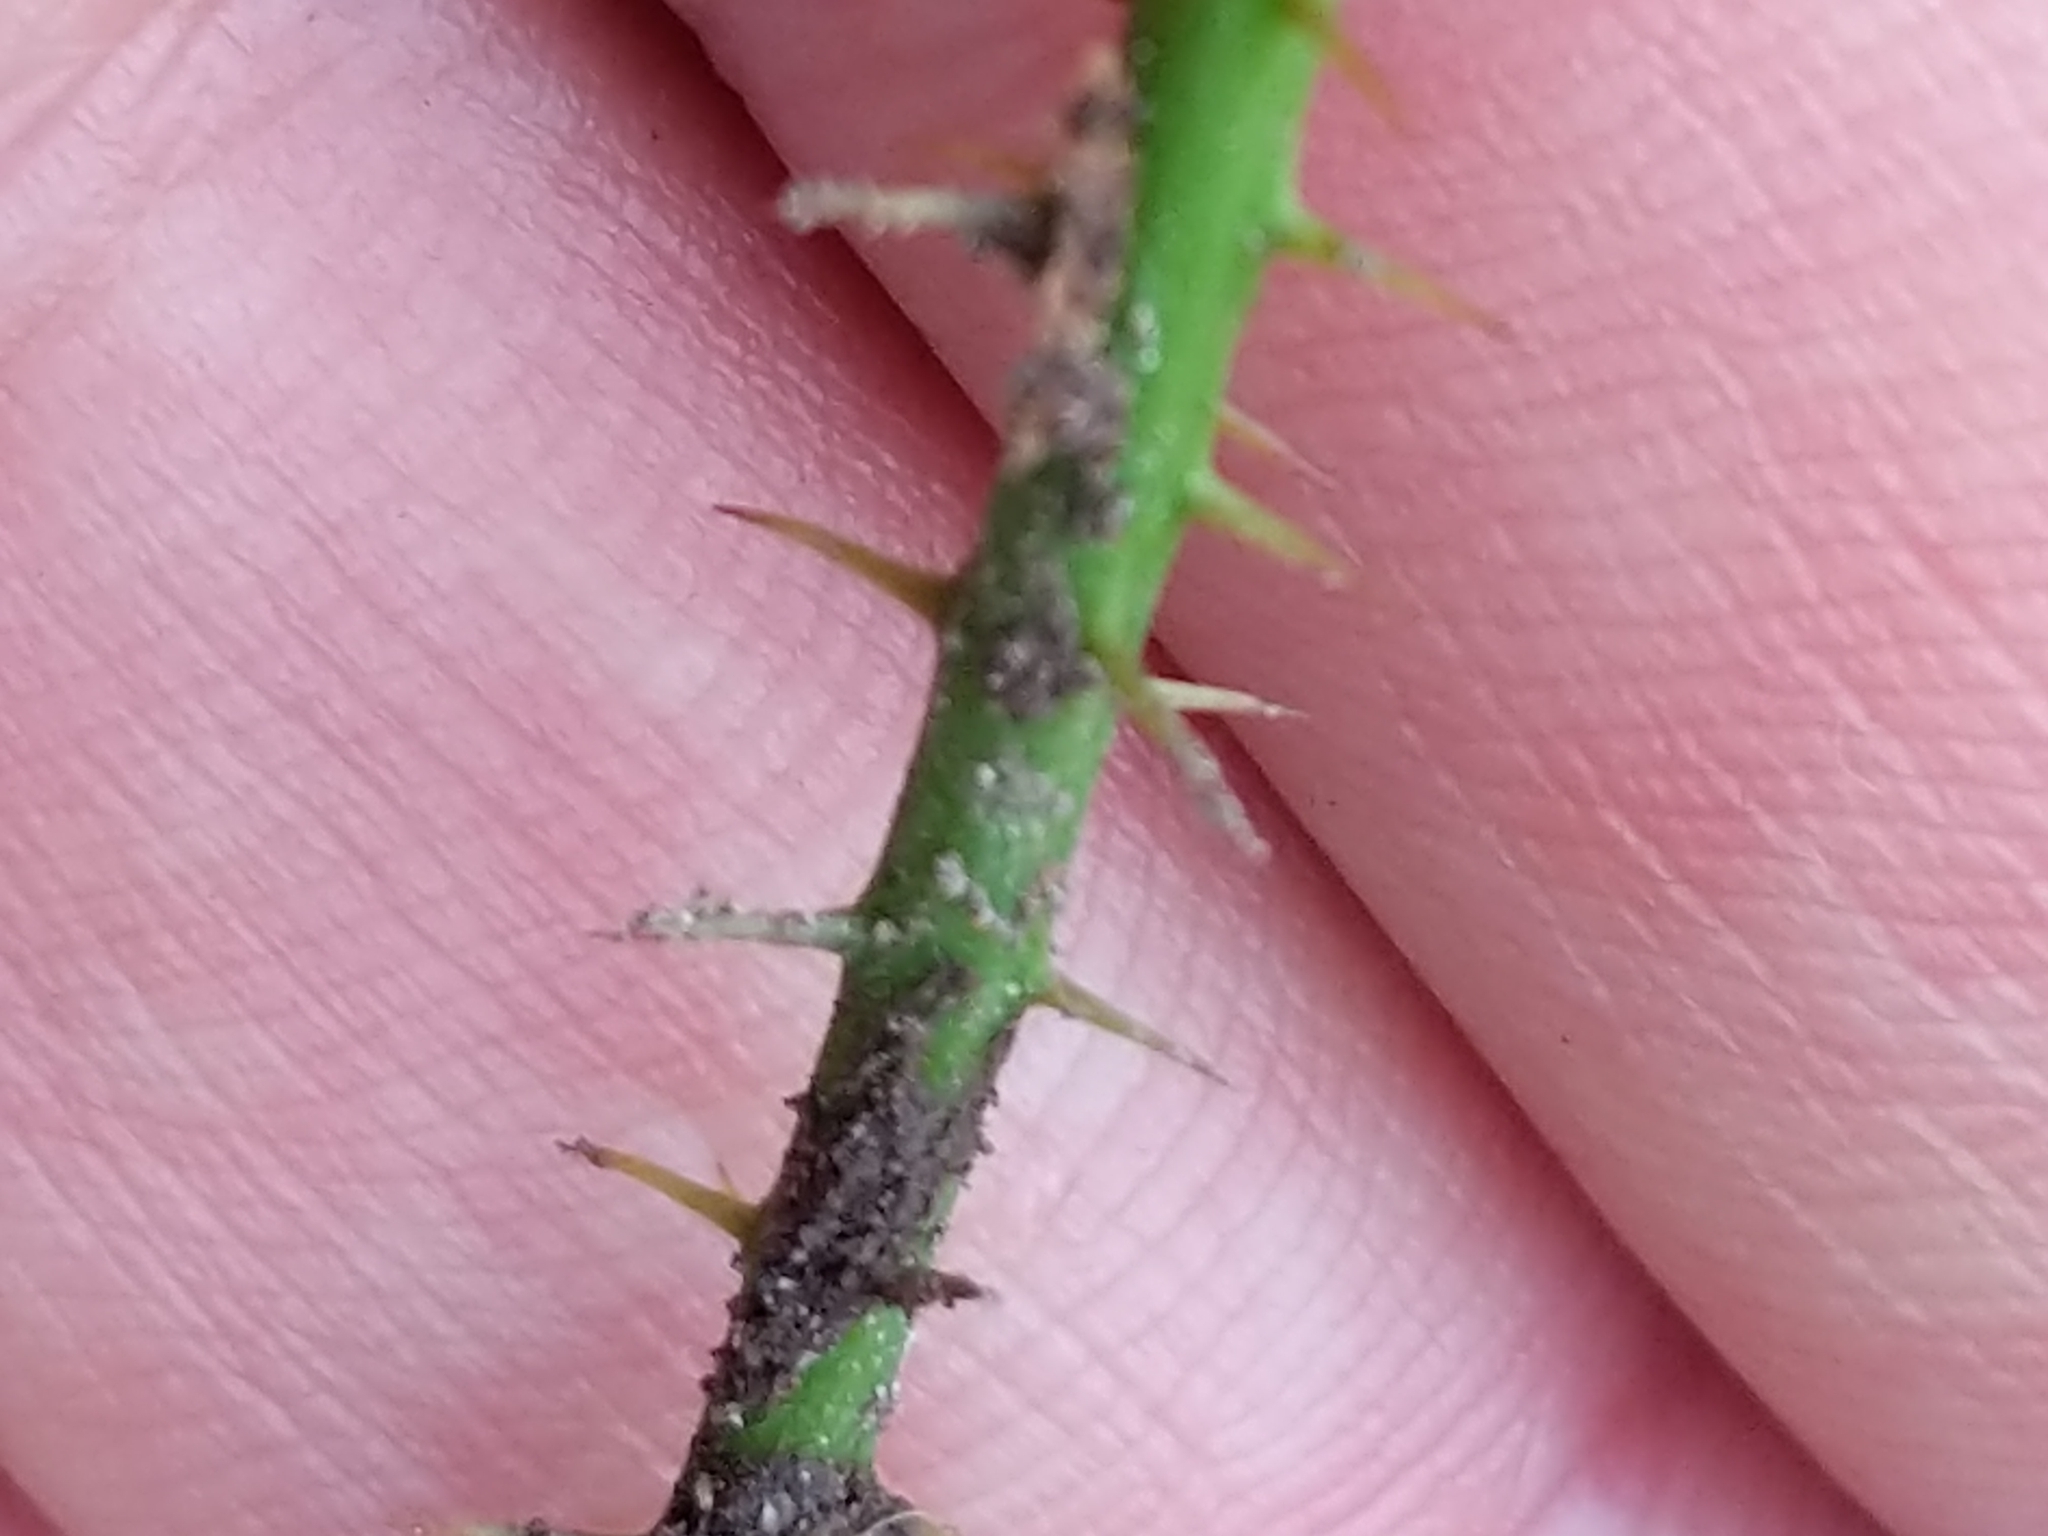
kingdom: Plantae
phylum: Tracheophyta
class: Liliopsida
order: Liliales
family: Smilacaceae
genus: Smilax
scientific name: Smilax glauca
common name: Cat greenbrier
